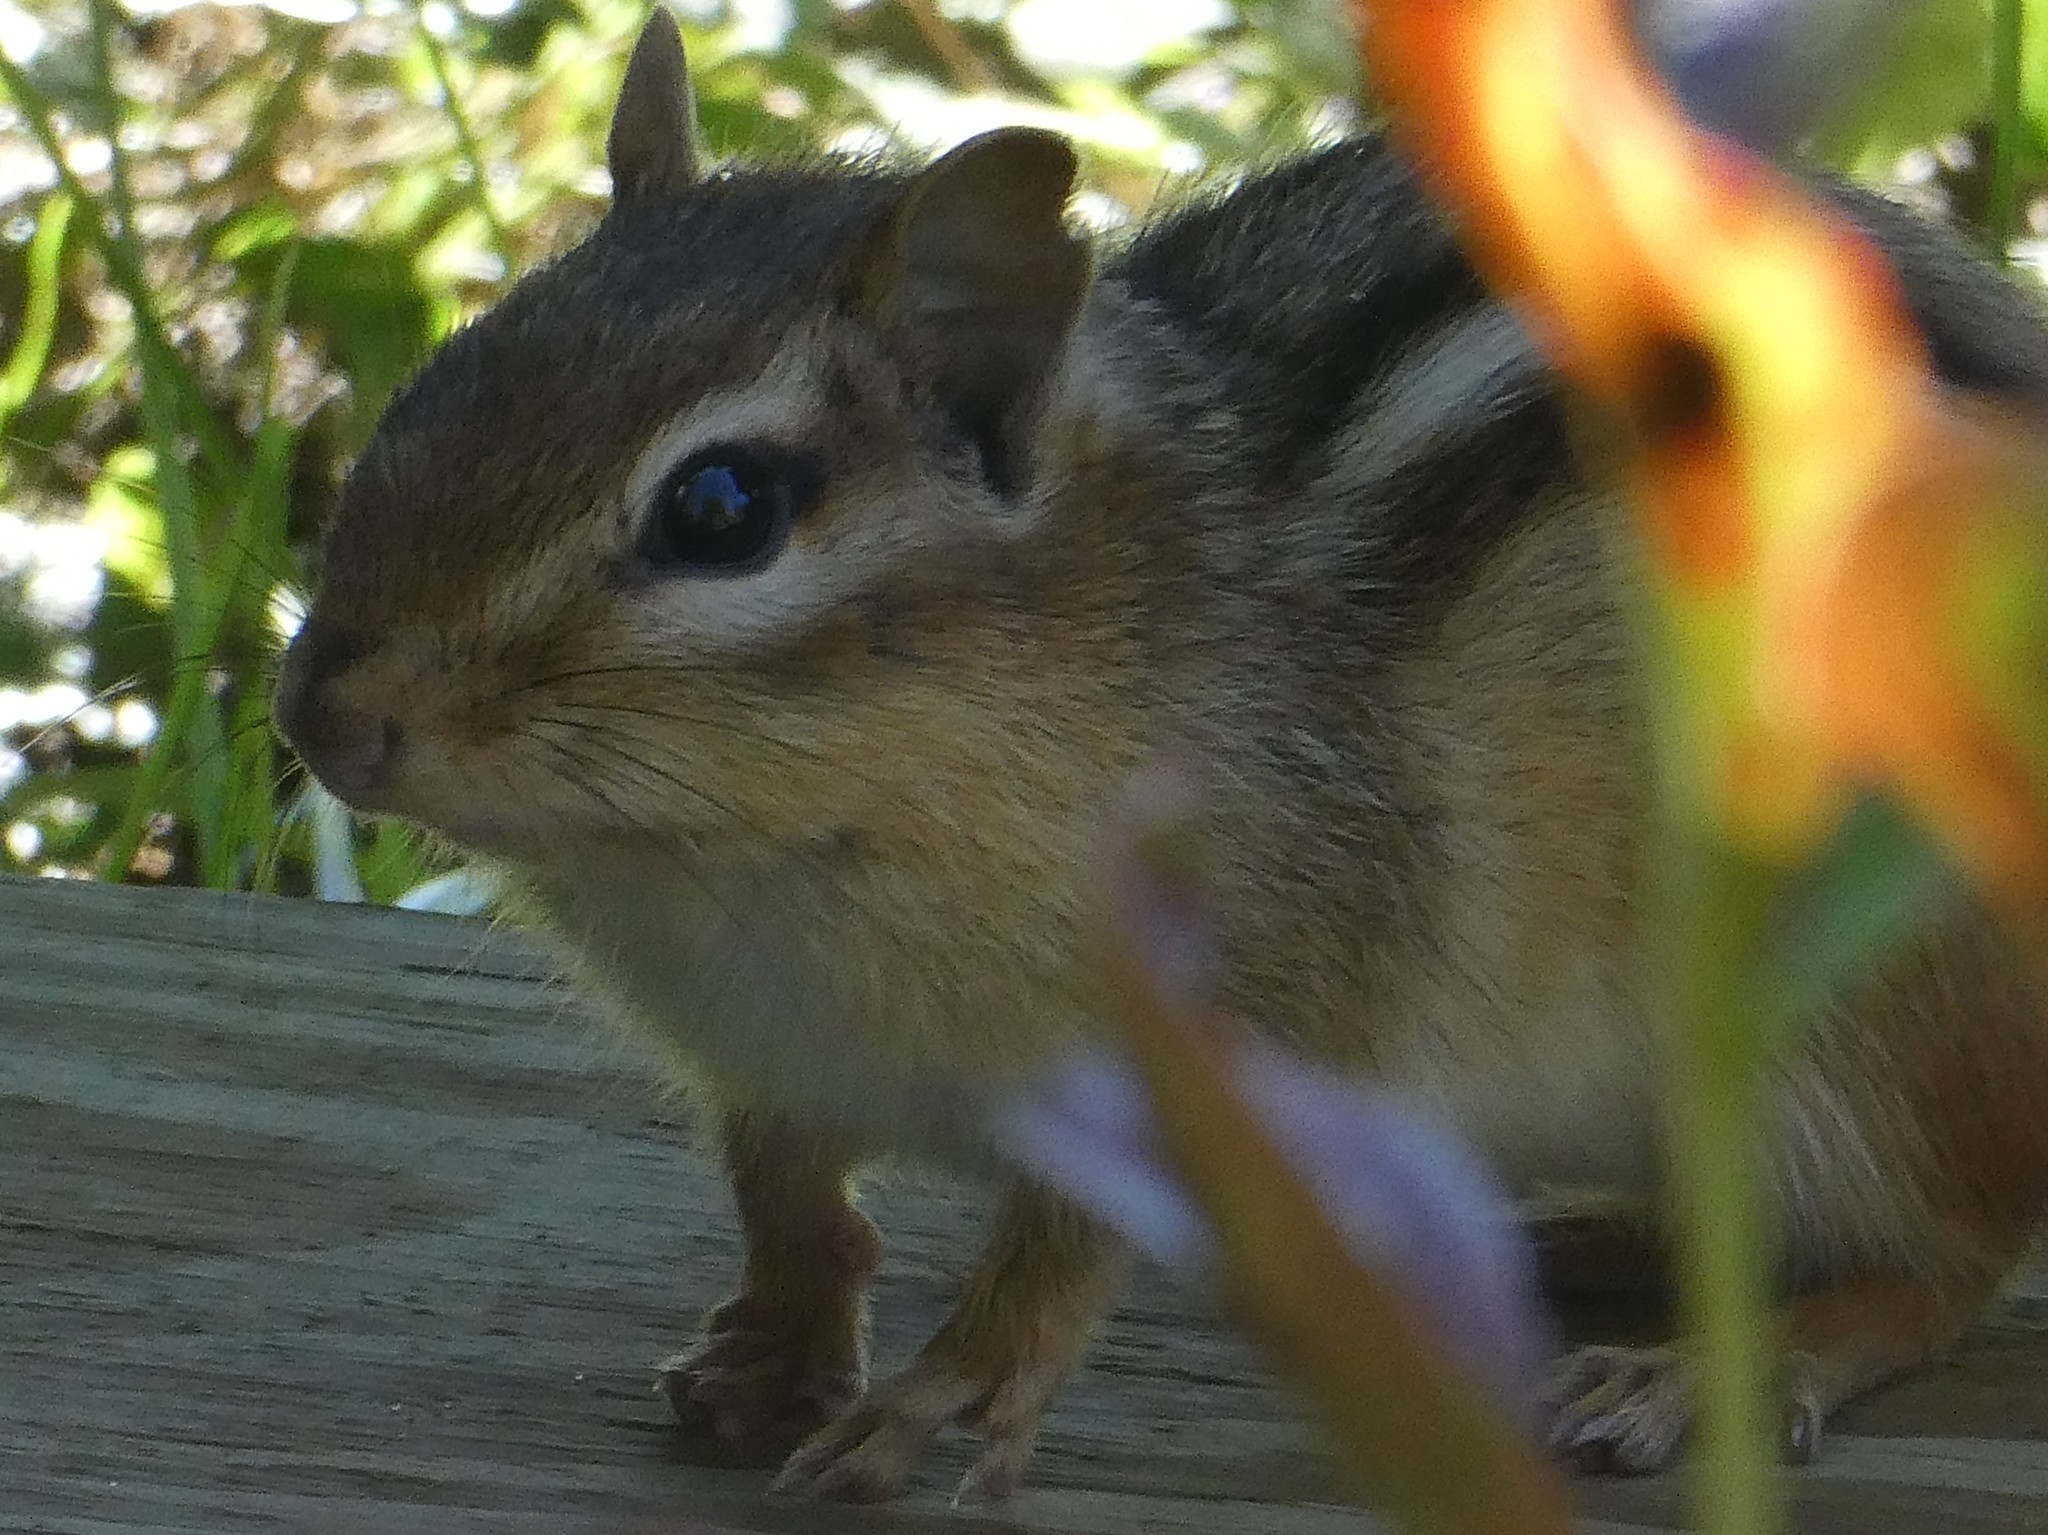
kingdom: Animalia
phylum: Chordata
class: Mammalia
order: Rodentia
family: Sciuridae
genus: Tamias
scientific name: Tamias striatus
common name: Eastern chipmunk
